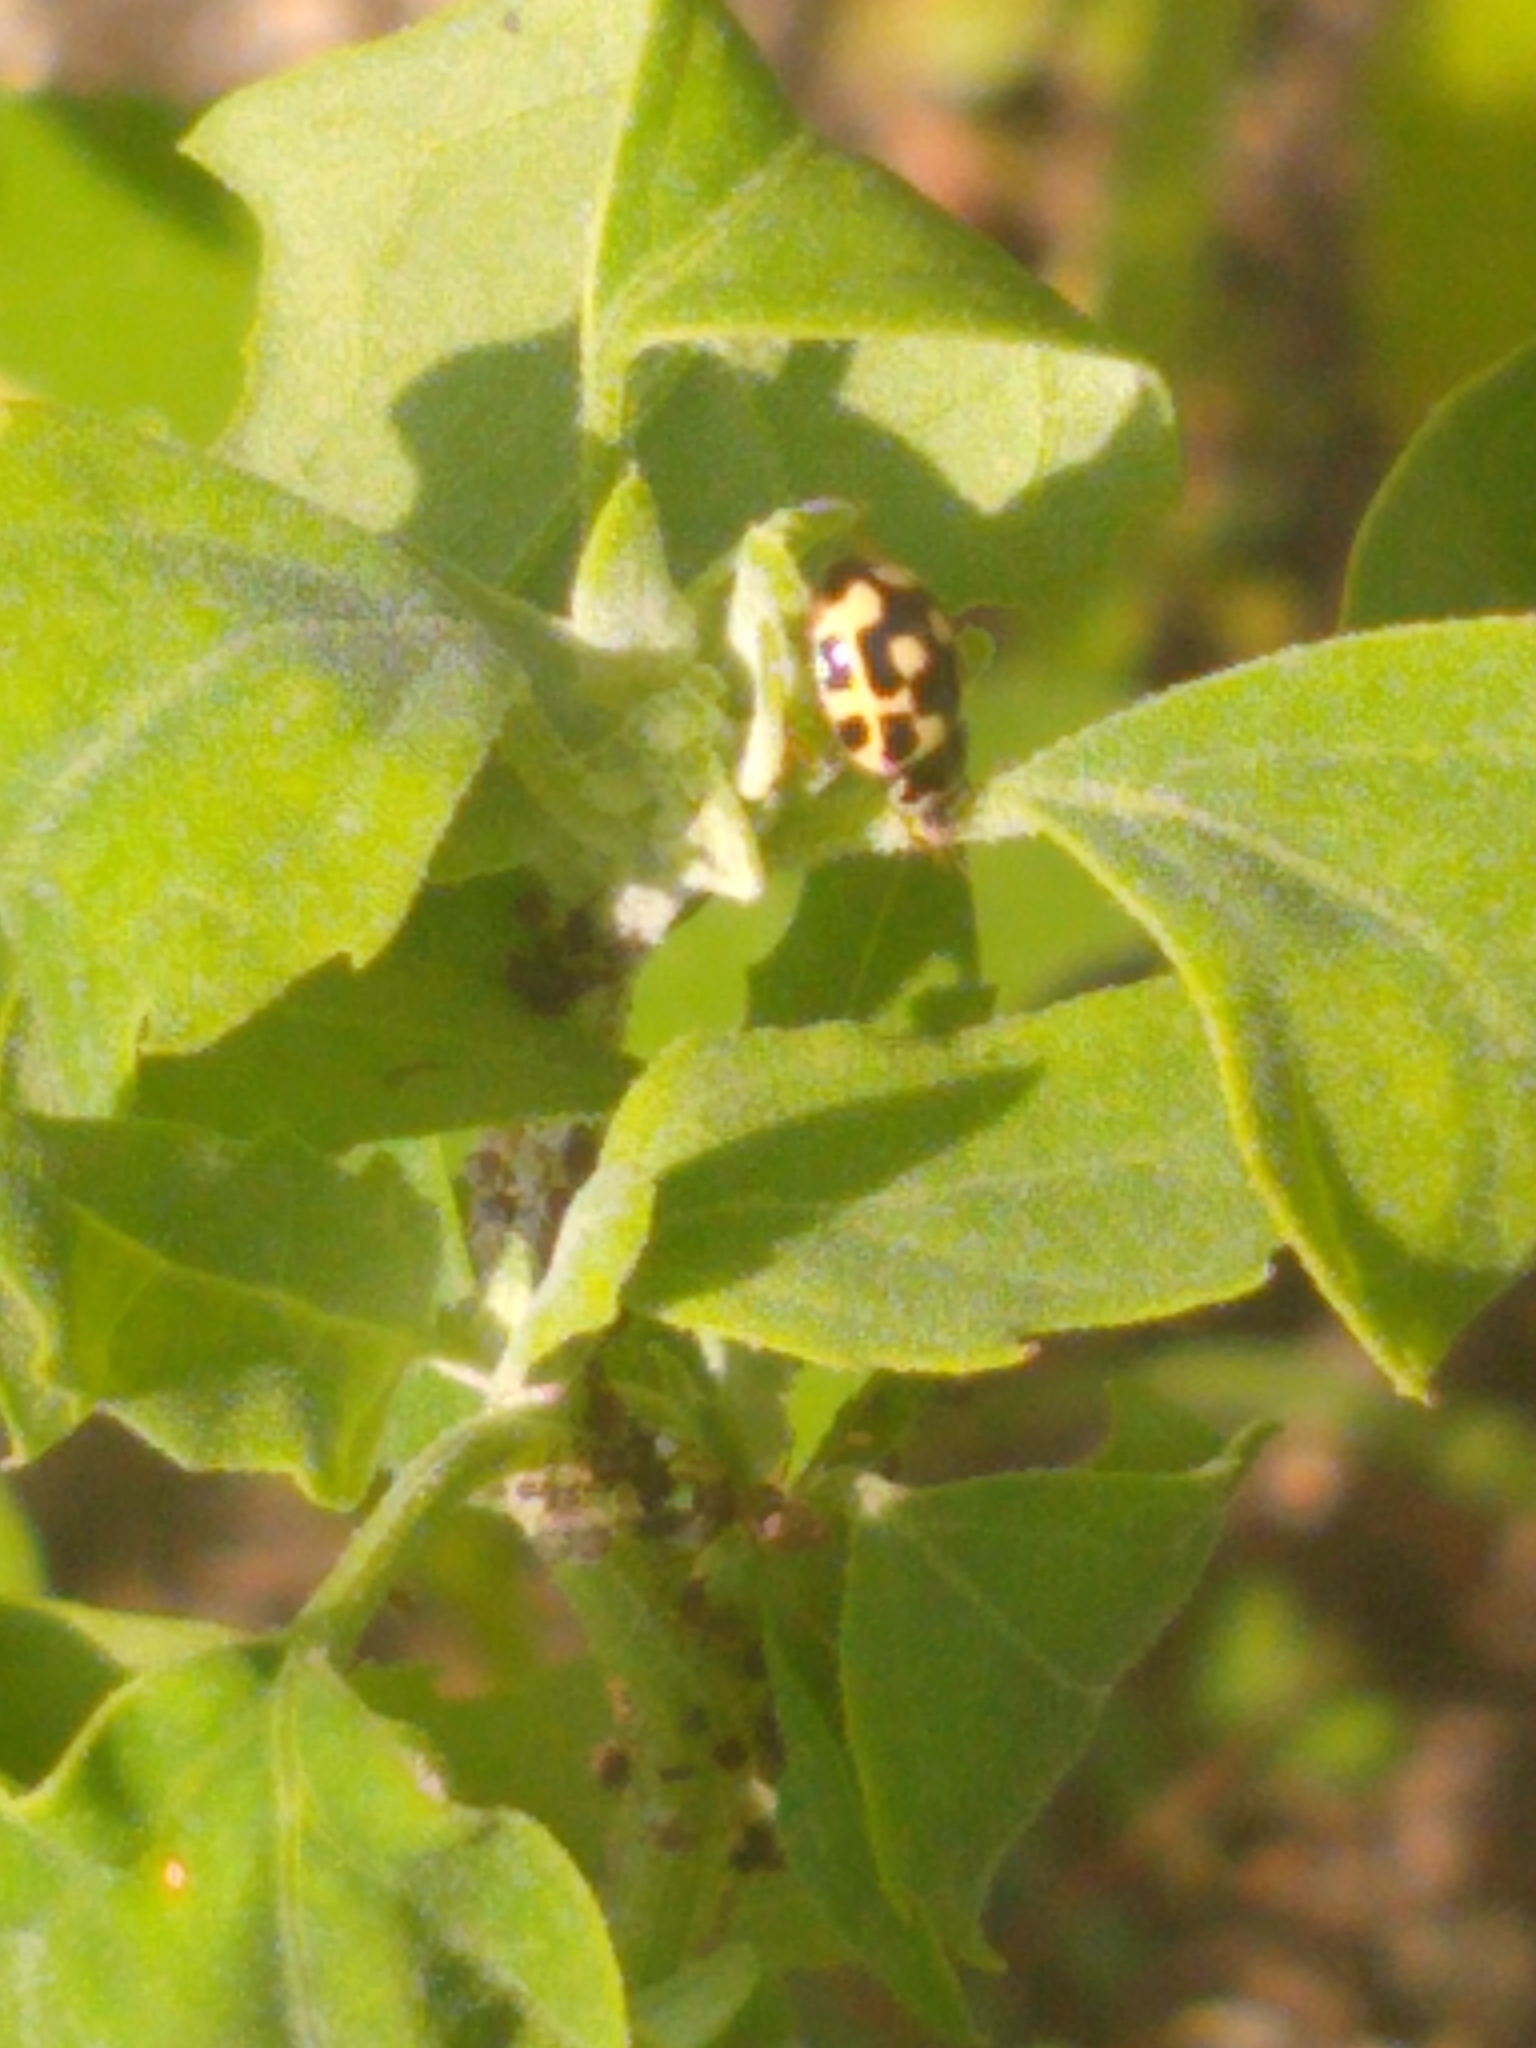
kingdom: Animalia
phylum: Arthropoda
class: Insecta
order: Coleoptera
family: Coccinellidae
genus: Propylaea
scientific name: Propylaea quatuordecimpunctata
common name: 14-spotted ladybird beetle
